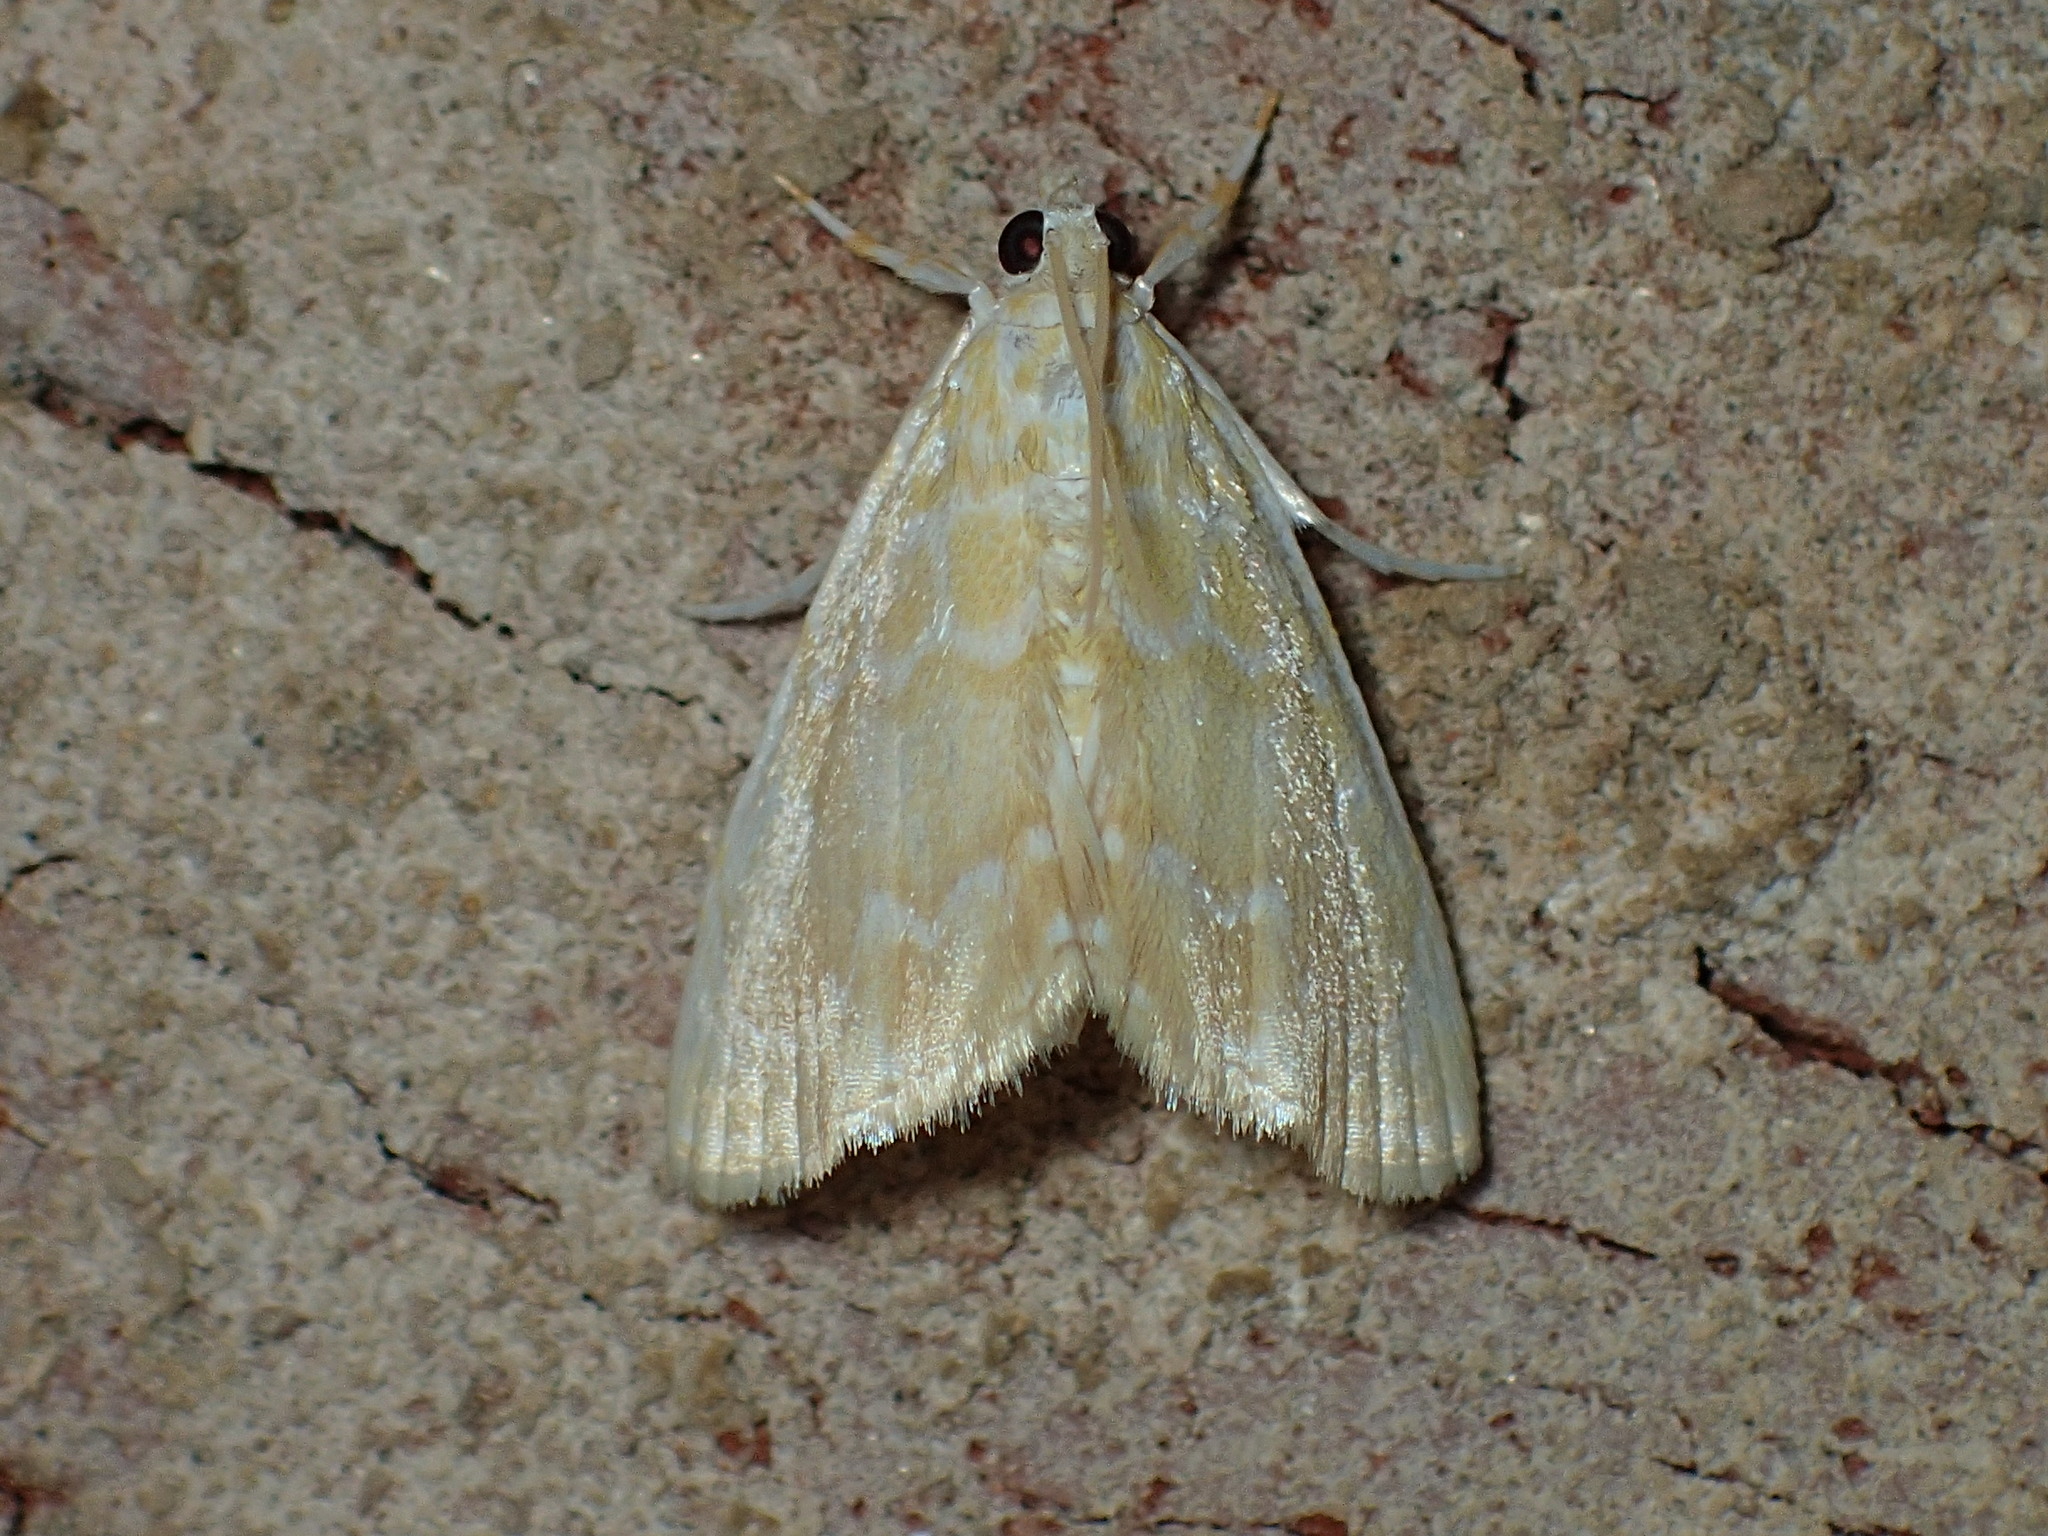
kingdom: Animalia
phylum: Arthropoda
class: Insecta
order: Lepidoptera
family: Crambidae
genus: Glaphyria
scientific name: Glaphyria glaphyralis
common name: Common glaphyria moth
